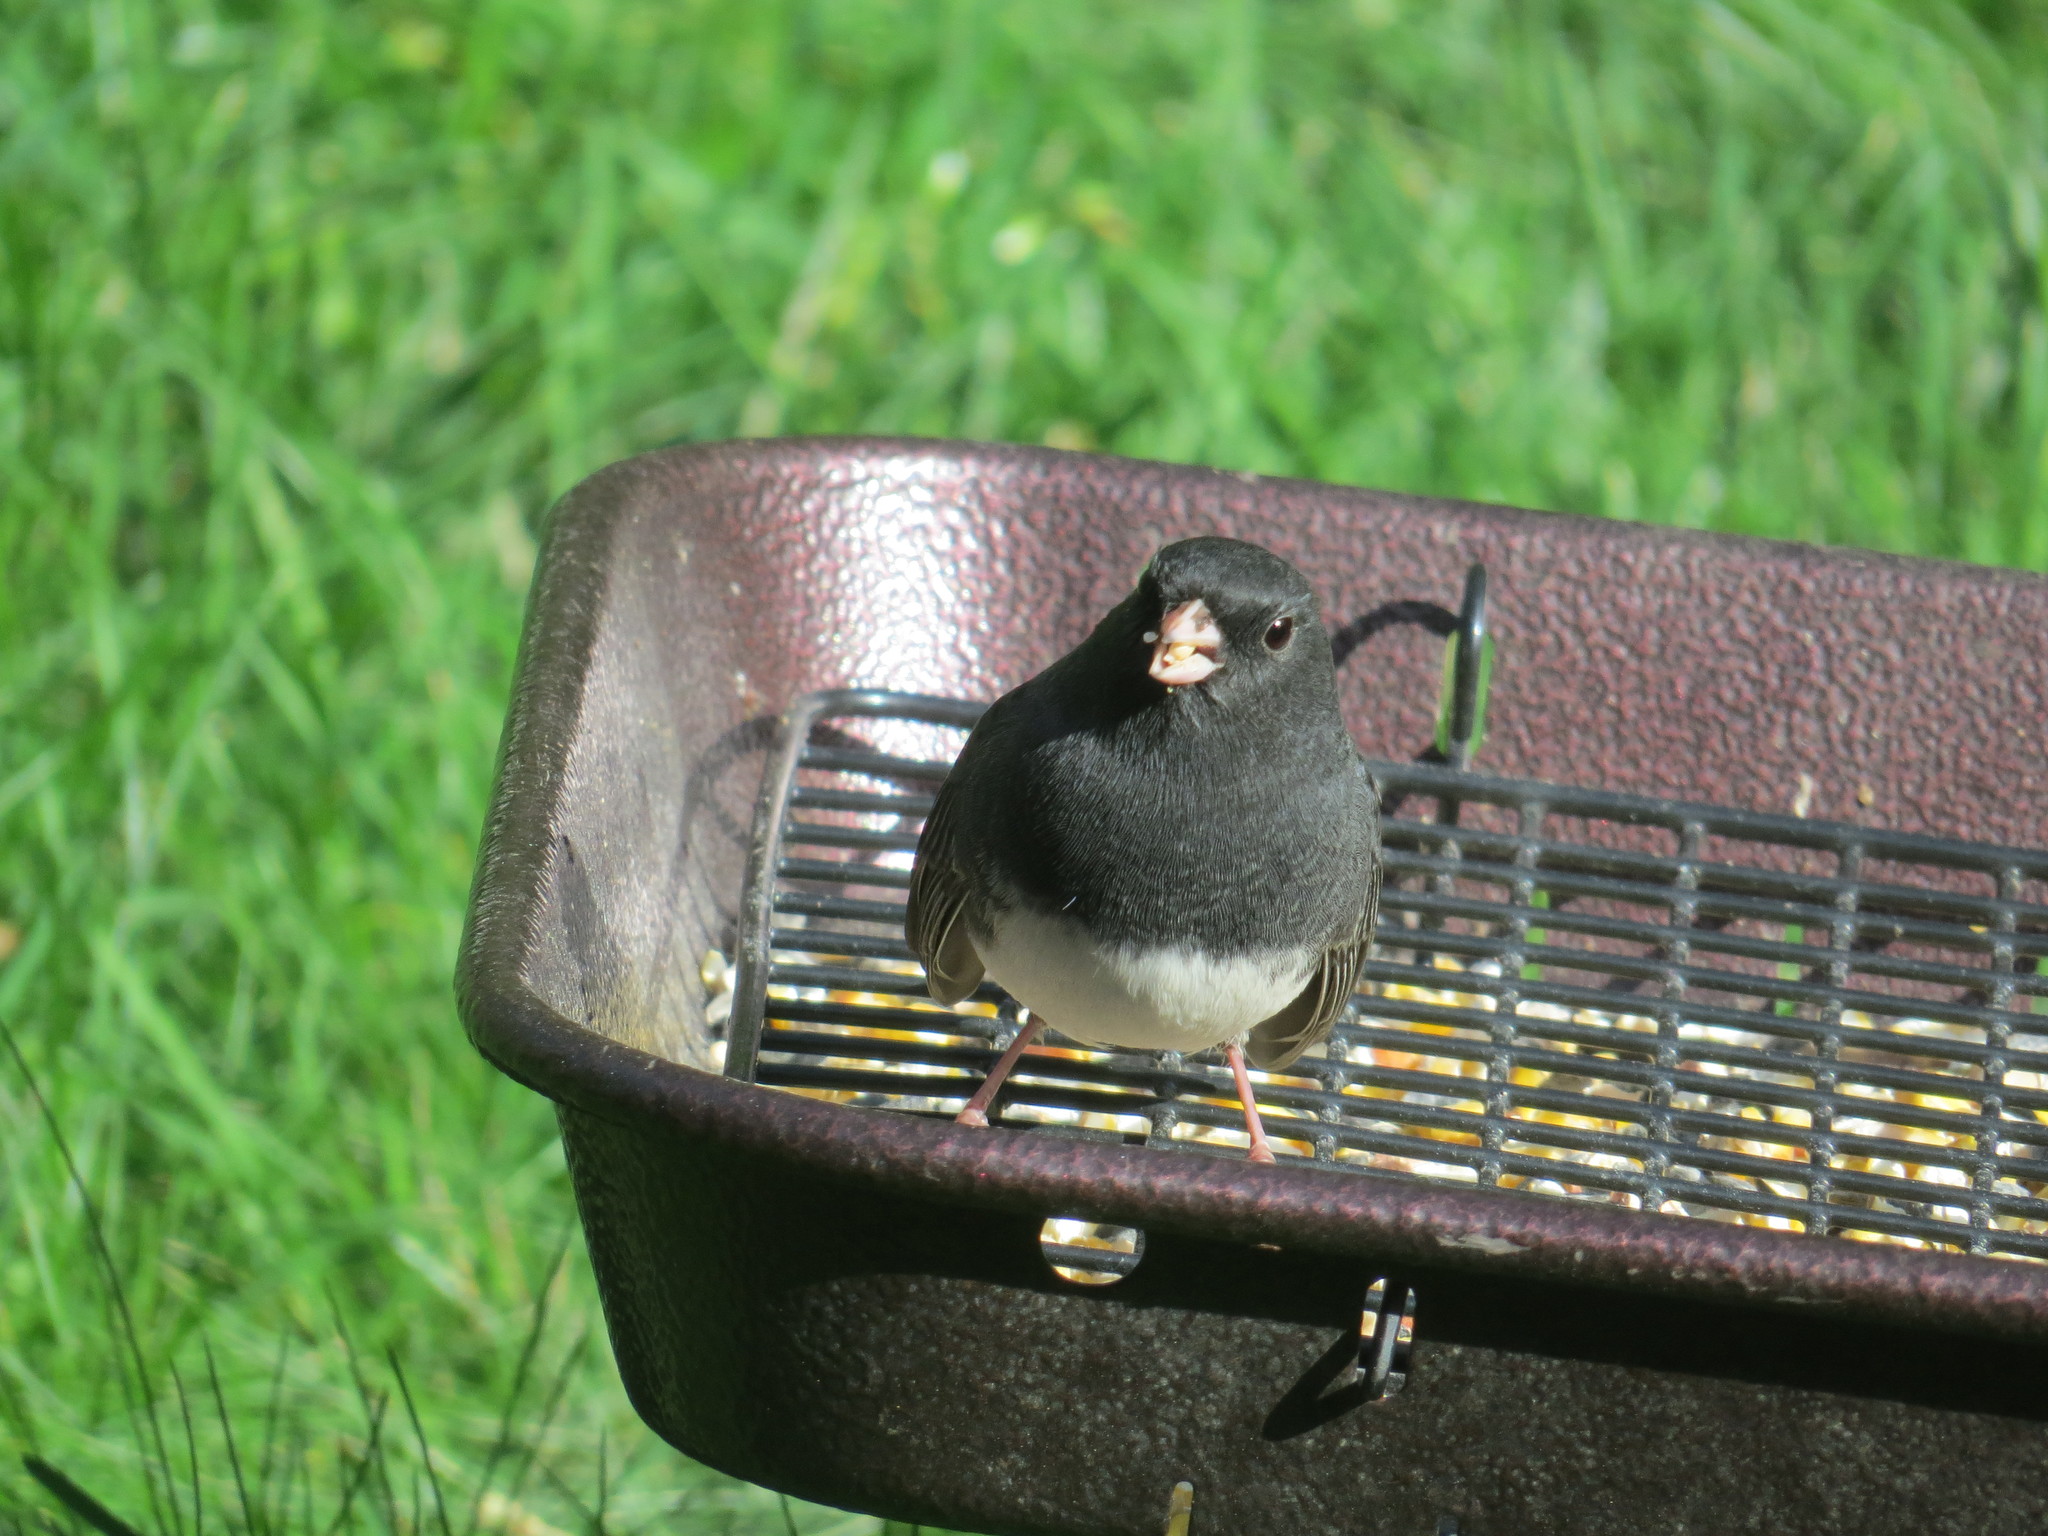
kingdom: Animalia
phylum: Chordata
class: Aves
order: Passeriformes
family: Passerellidae
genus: Junco
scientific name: Junco hyemalis
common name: Dark-eyed junco
